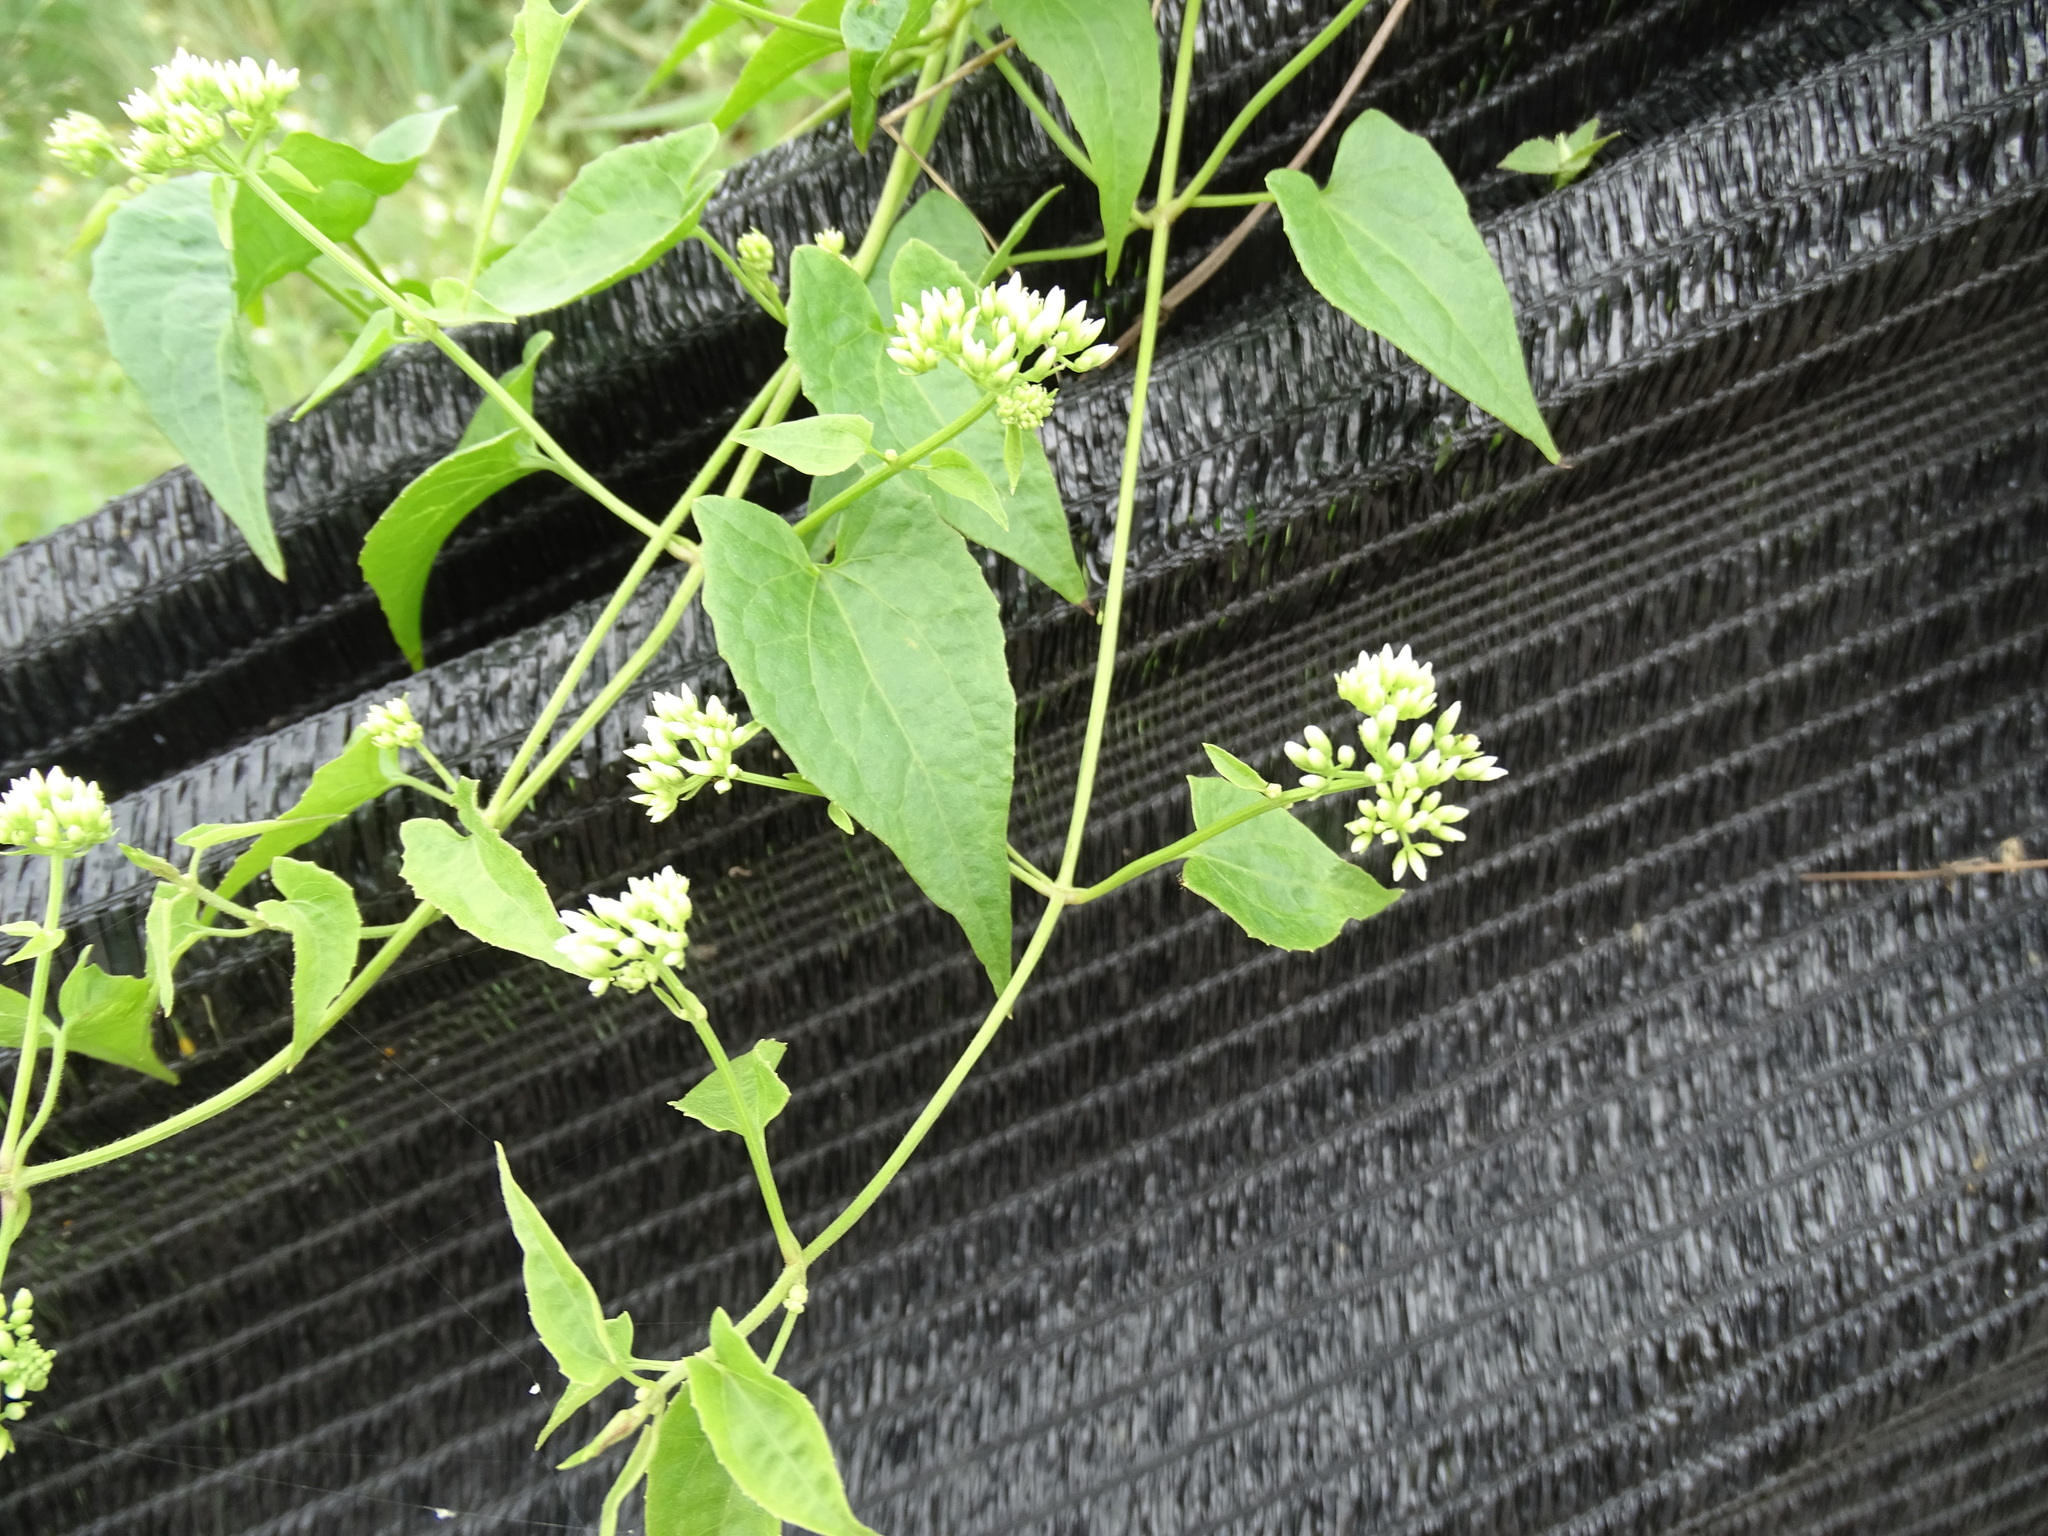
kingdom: Plantae
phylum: Tracheophyta
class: Magnoliopsida
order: Asterales
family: Asteraceae
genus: Mikania
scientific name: Mikania micrantha
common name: Mile-a-minute
